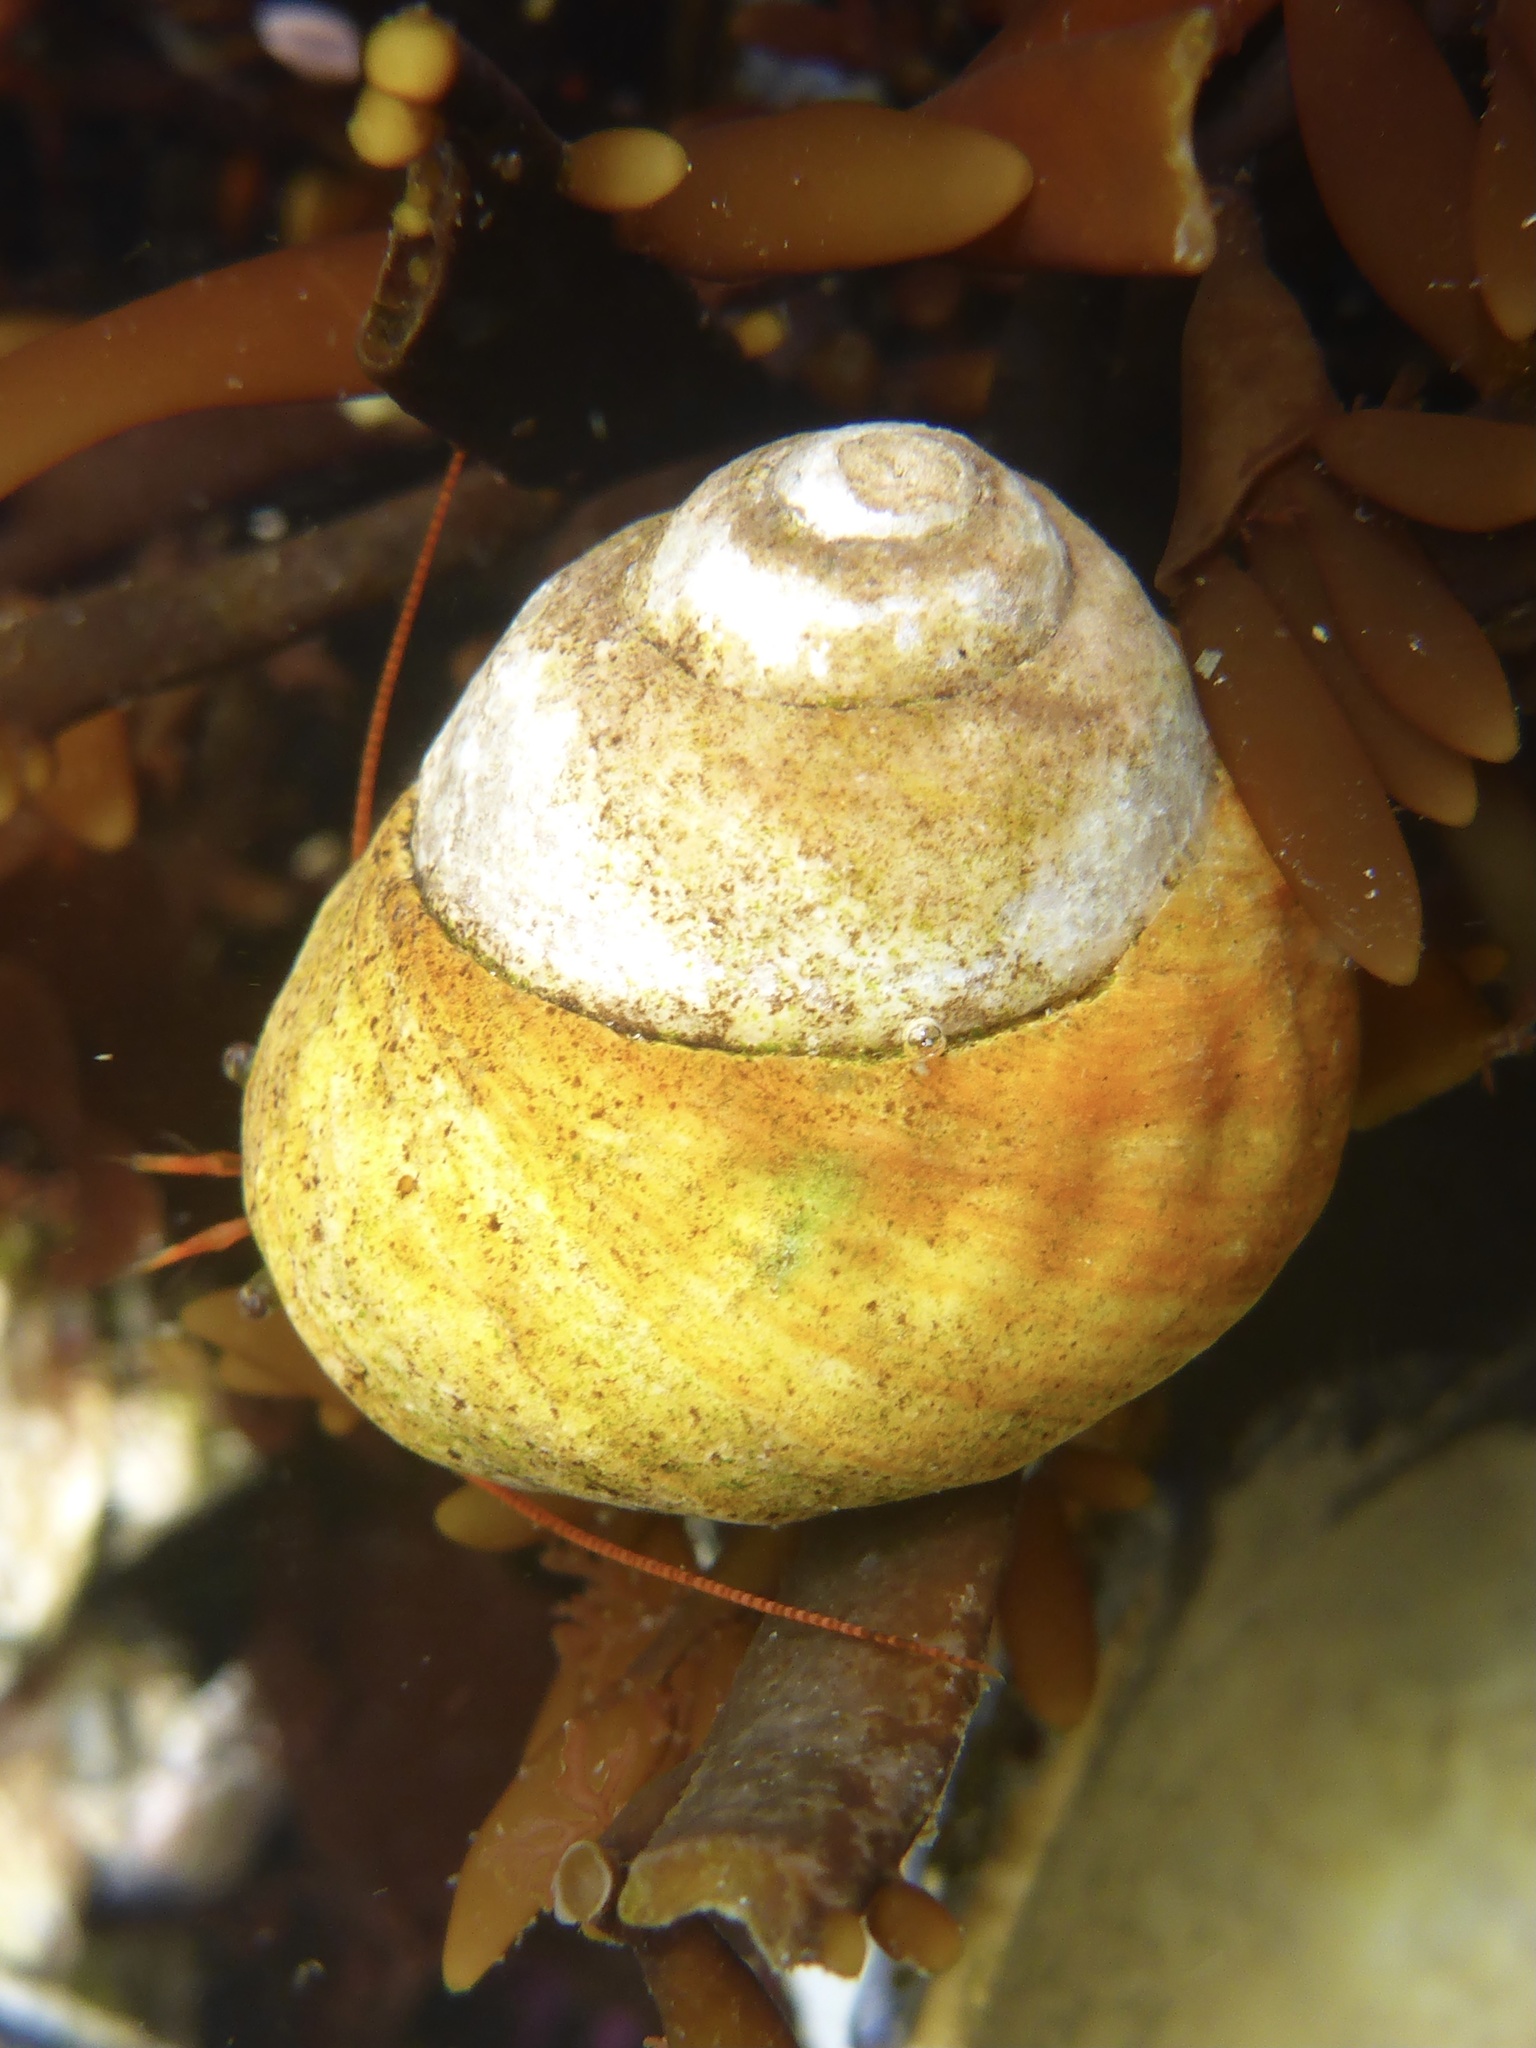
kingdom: Animalia
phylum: Mollusca
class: Gastropoda
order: Trochida
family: Tegulidae
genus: Tegula
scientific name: Tegula brunnea
